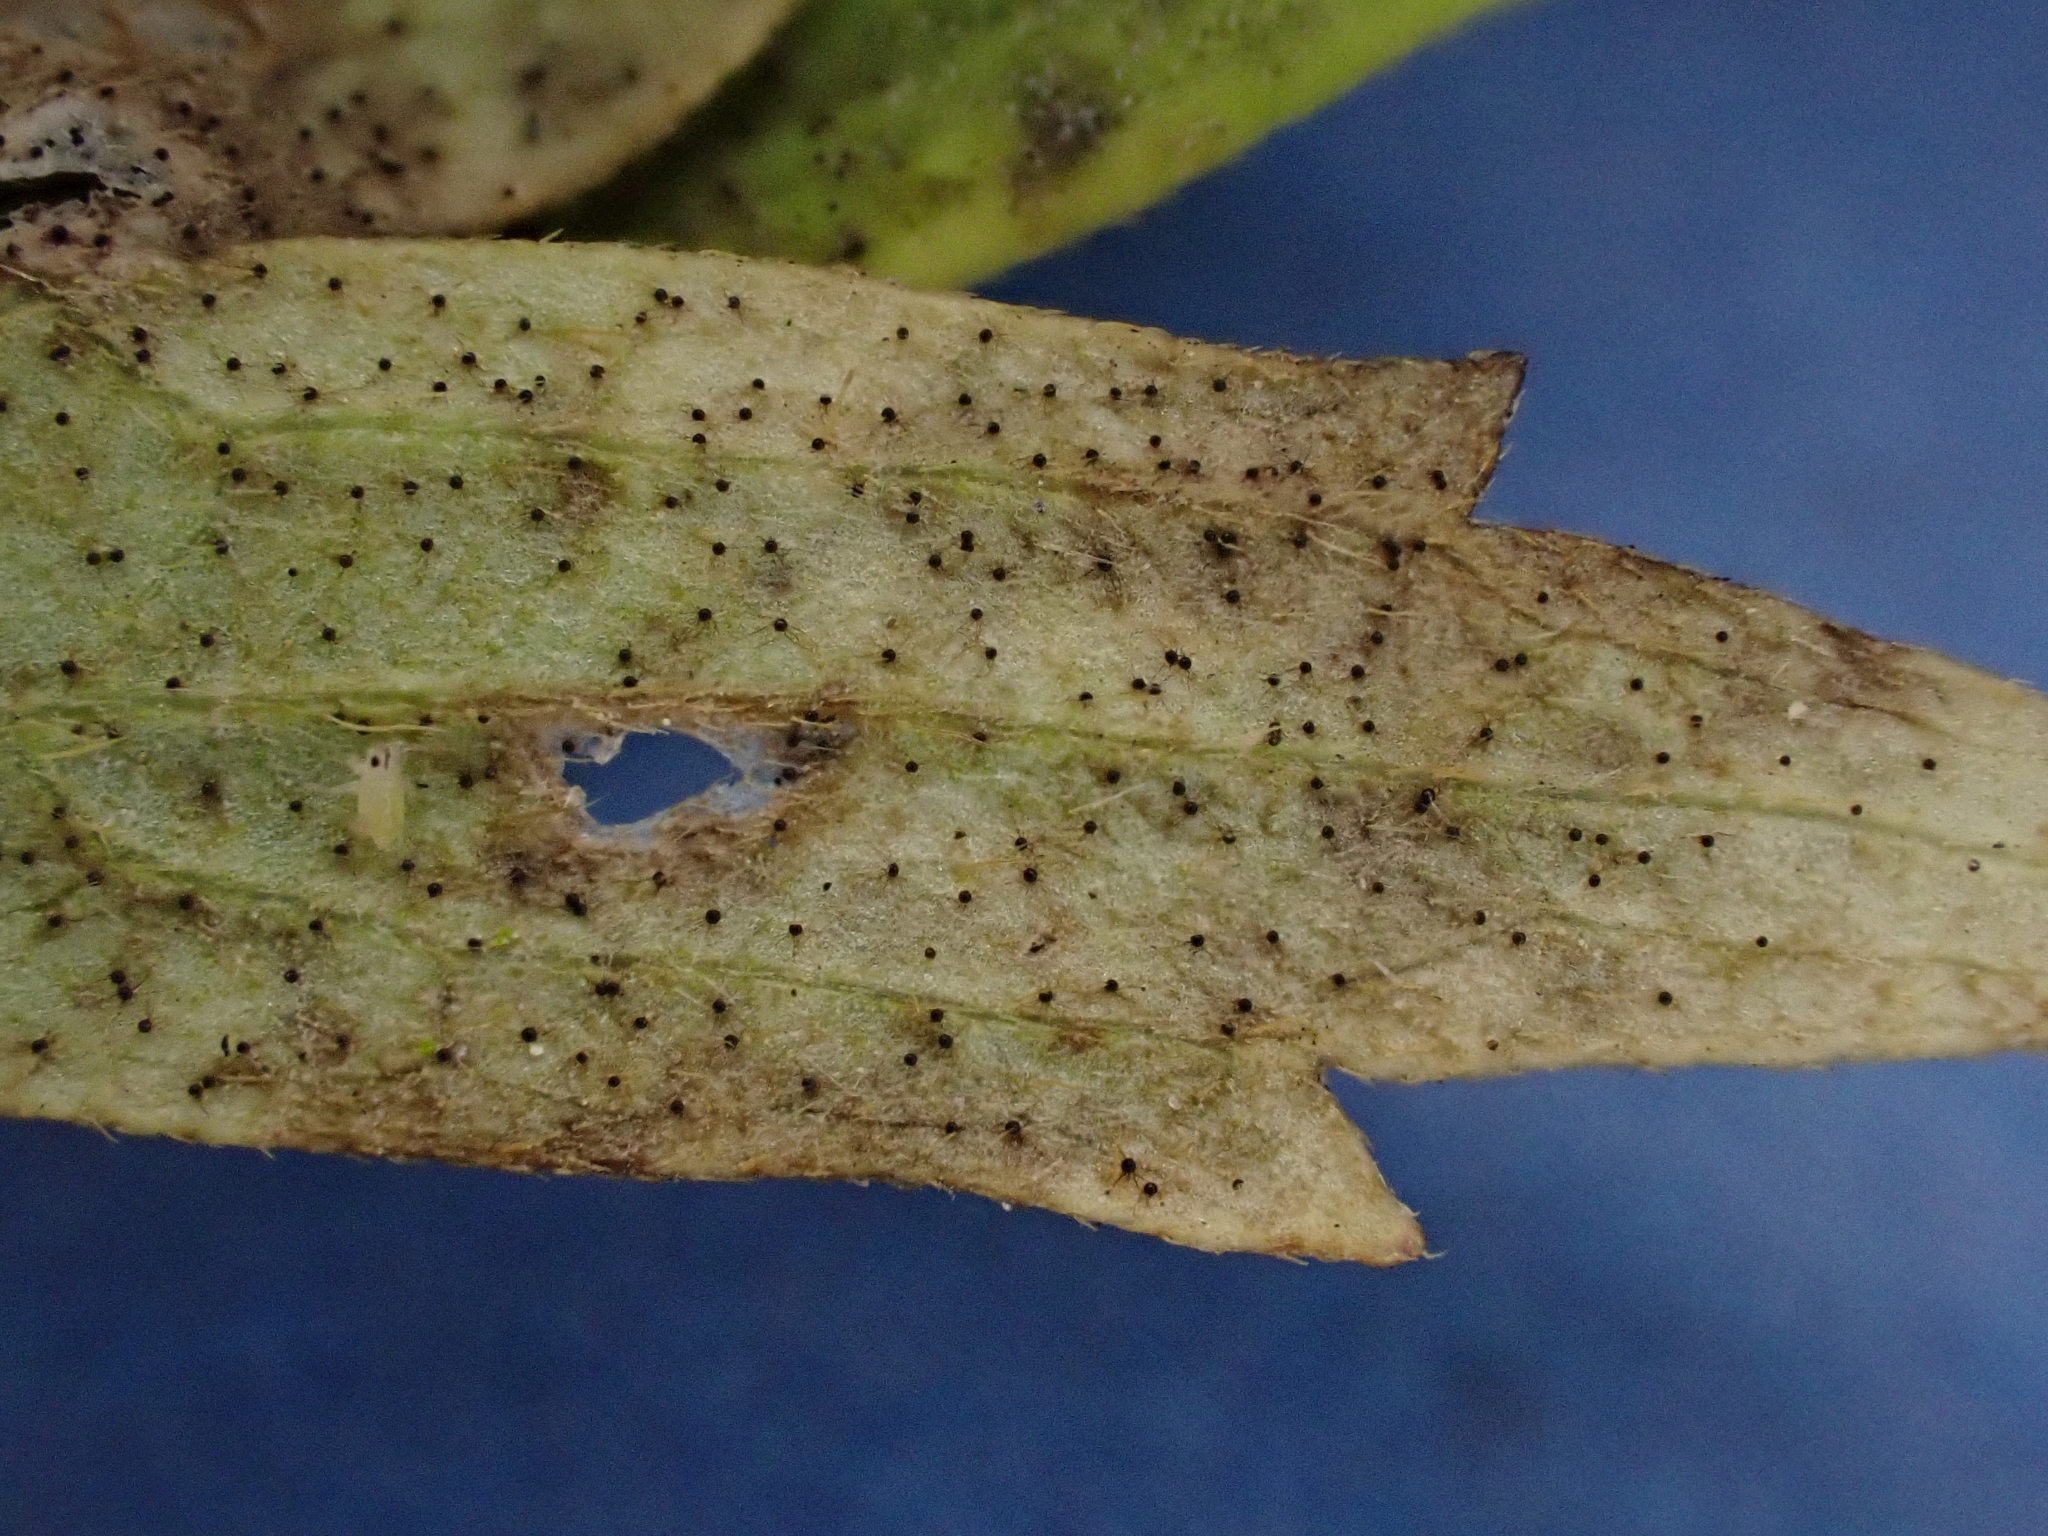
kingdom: Fungi
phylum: Ascomycota
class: Leotiomycetes
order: Helotiales
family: Erysiphaceae
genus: Erysiphe
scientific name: Erysiphe aquilegiae
